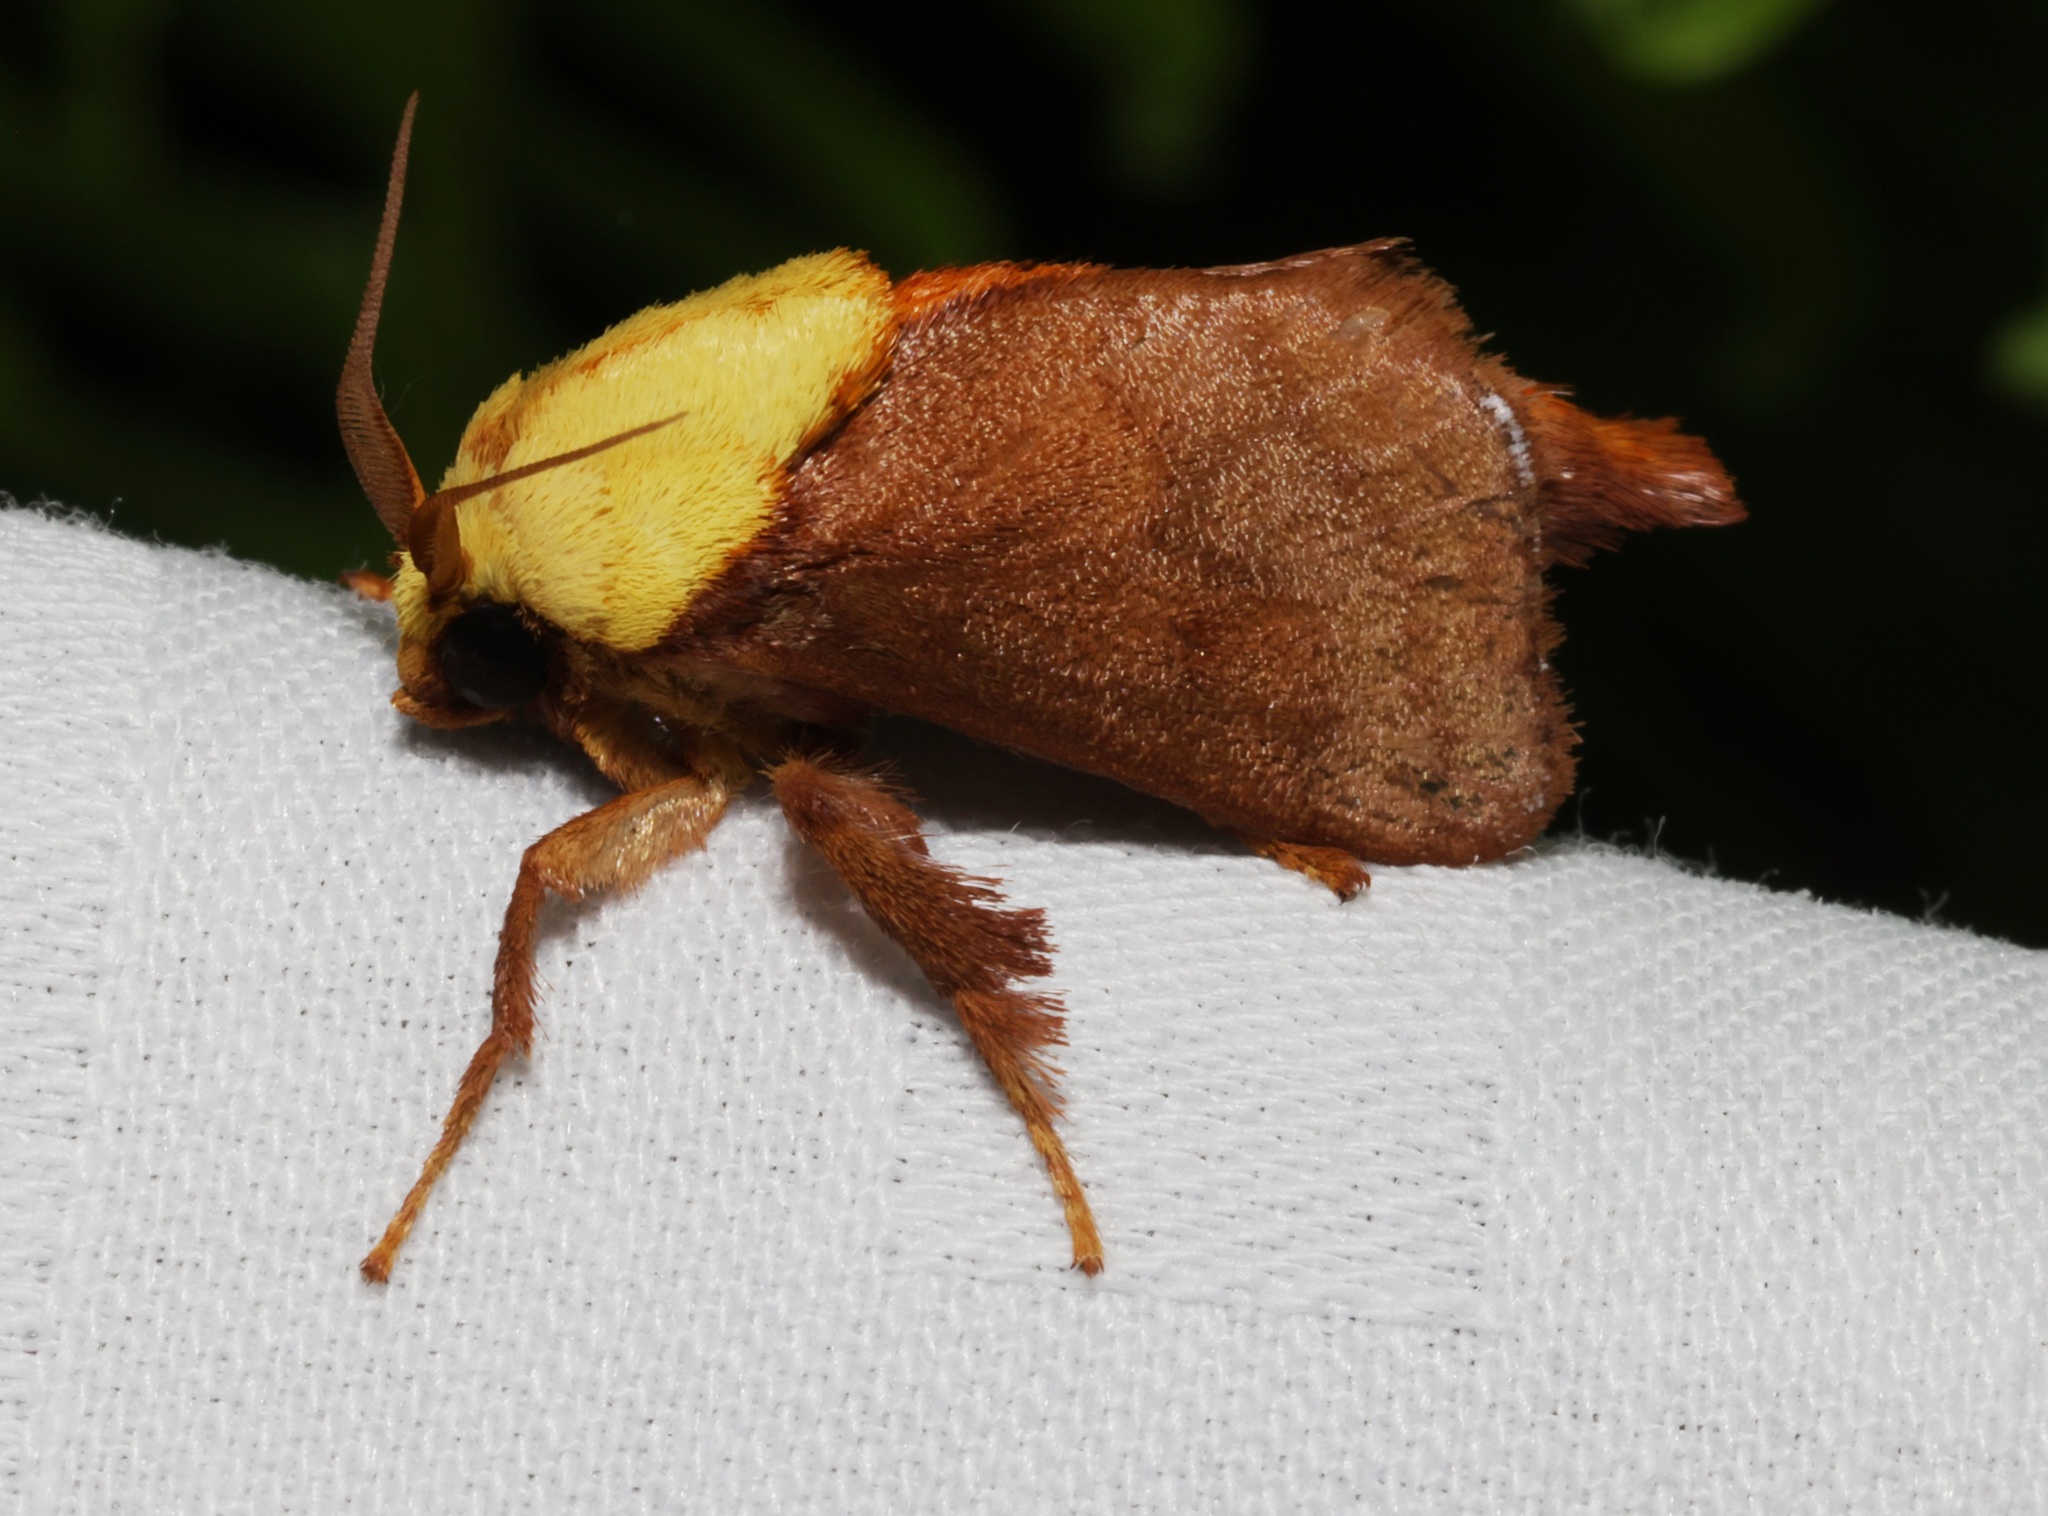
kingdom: Animalia
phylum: Arthropoda
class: Insecta
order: Lepidoptera
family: Limacodidae
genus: Miresa
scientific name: Miresa kwangtungensis
